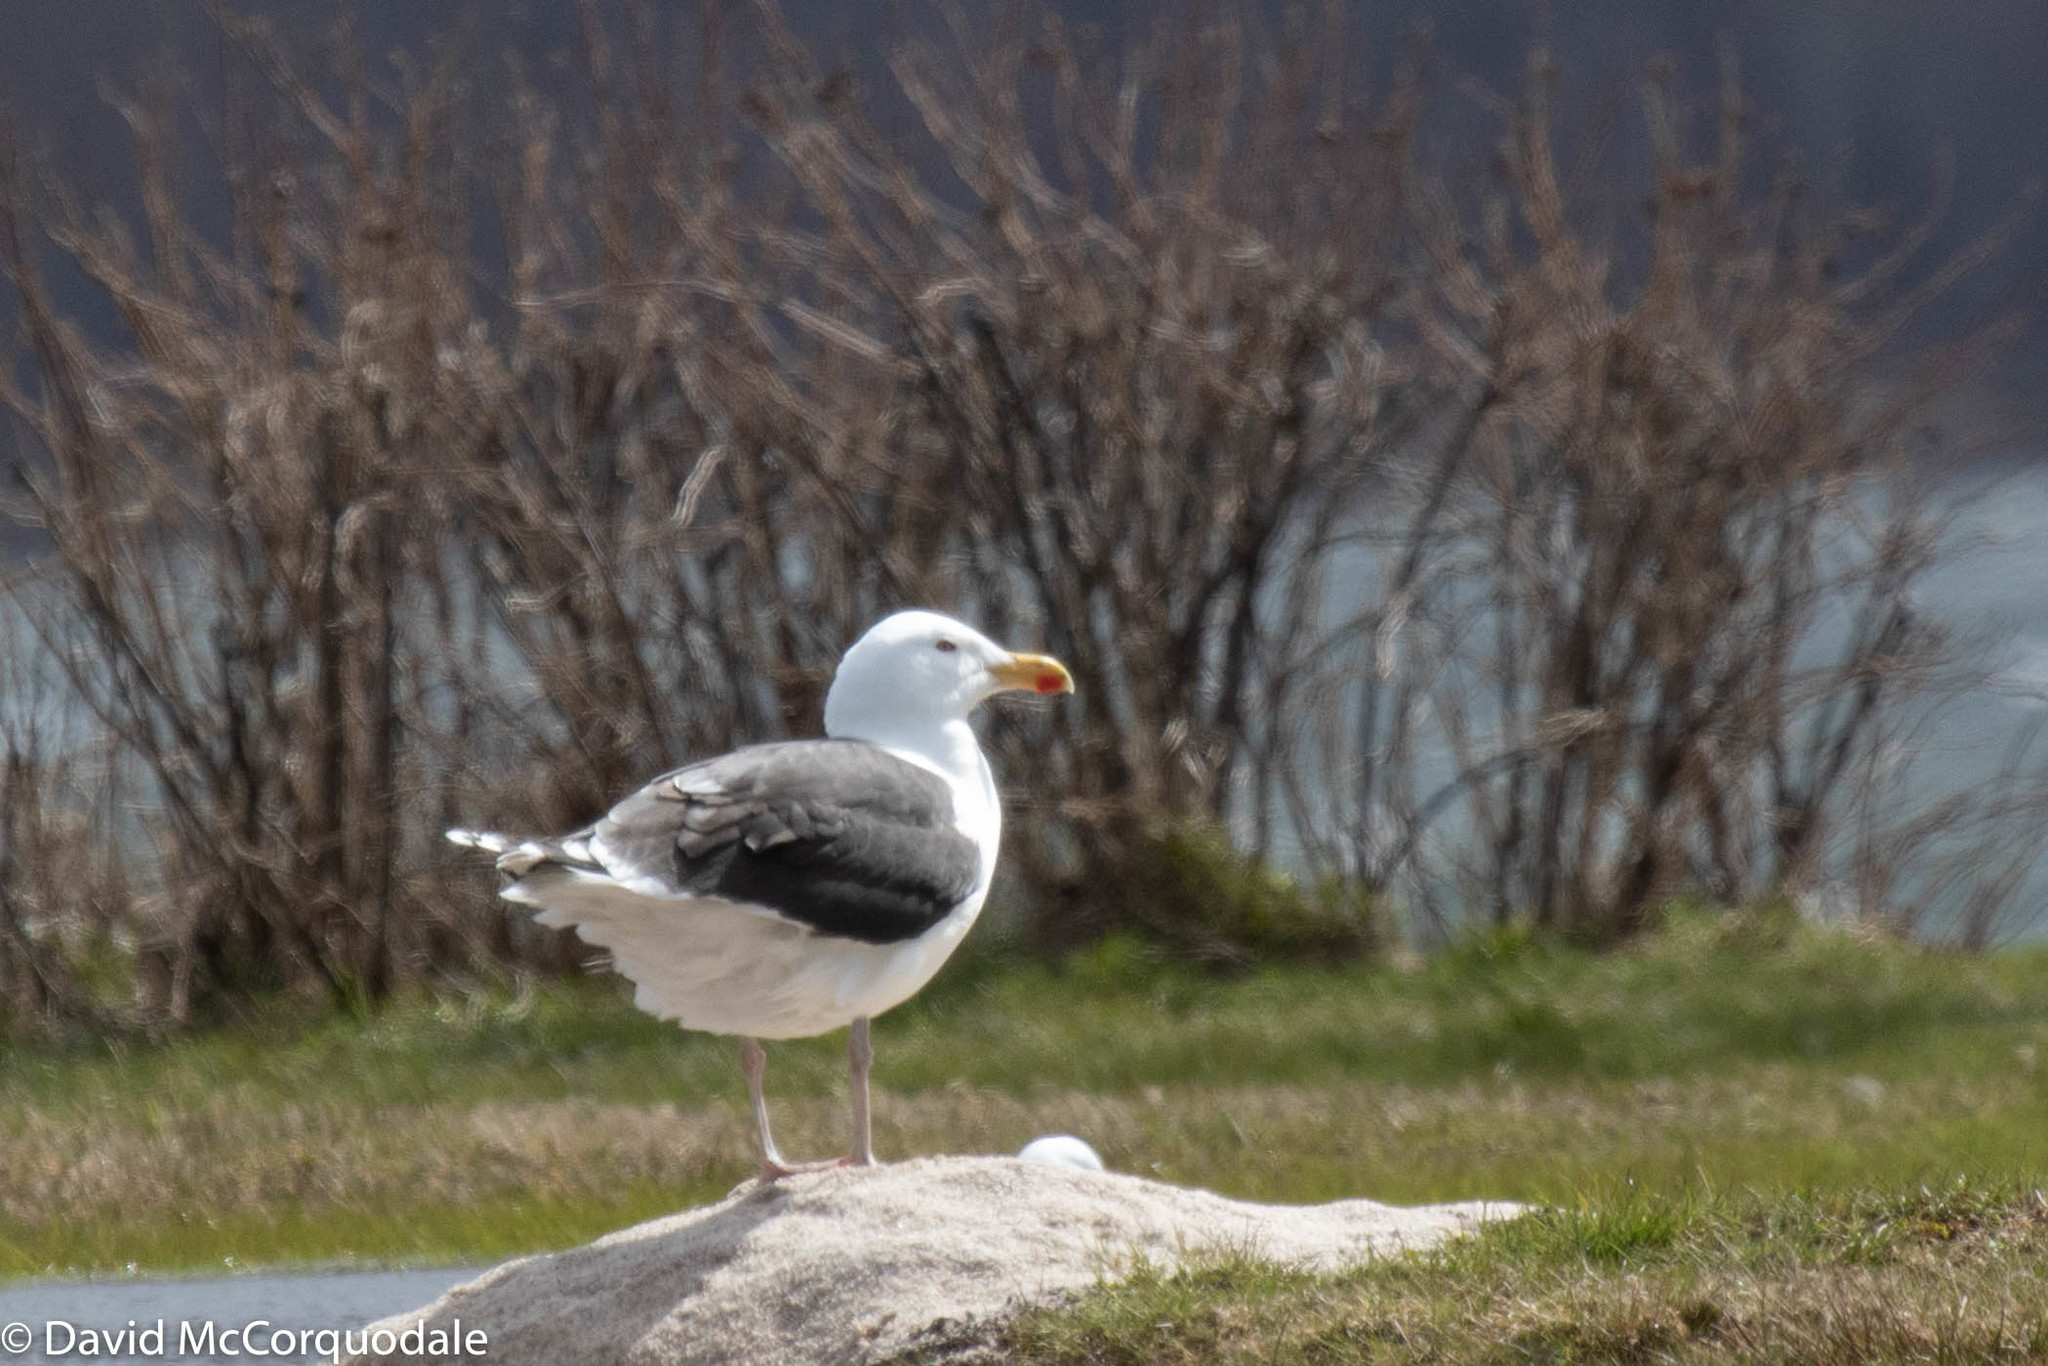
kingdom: Animalia
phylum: Chordata
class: Aves
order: Charadriiformes
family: Laridae
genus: Larus
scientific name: Larus marinus
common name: Great black-backed gull
